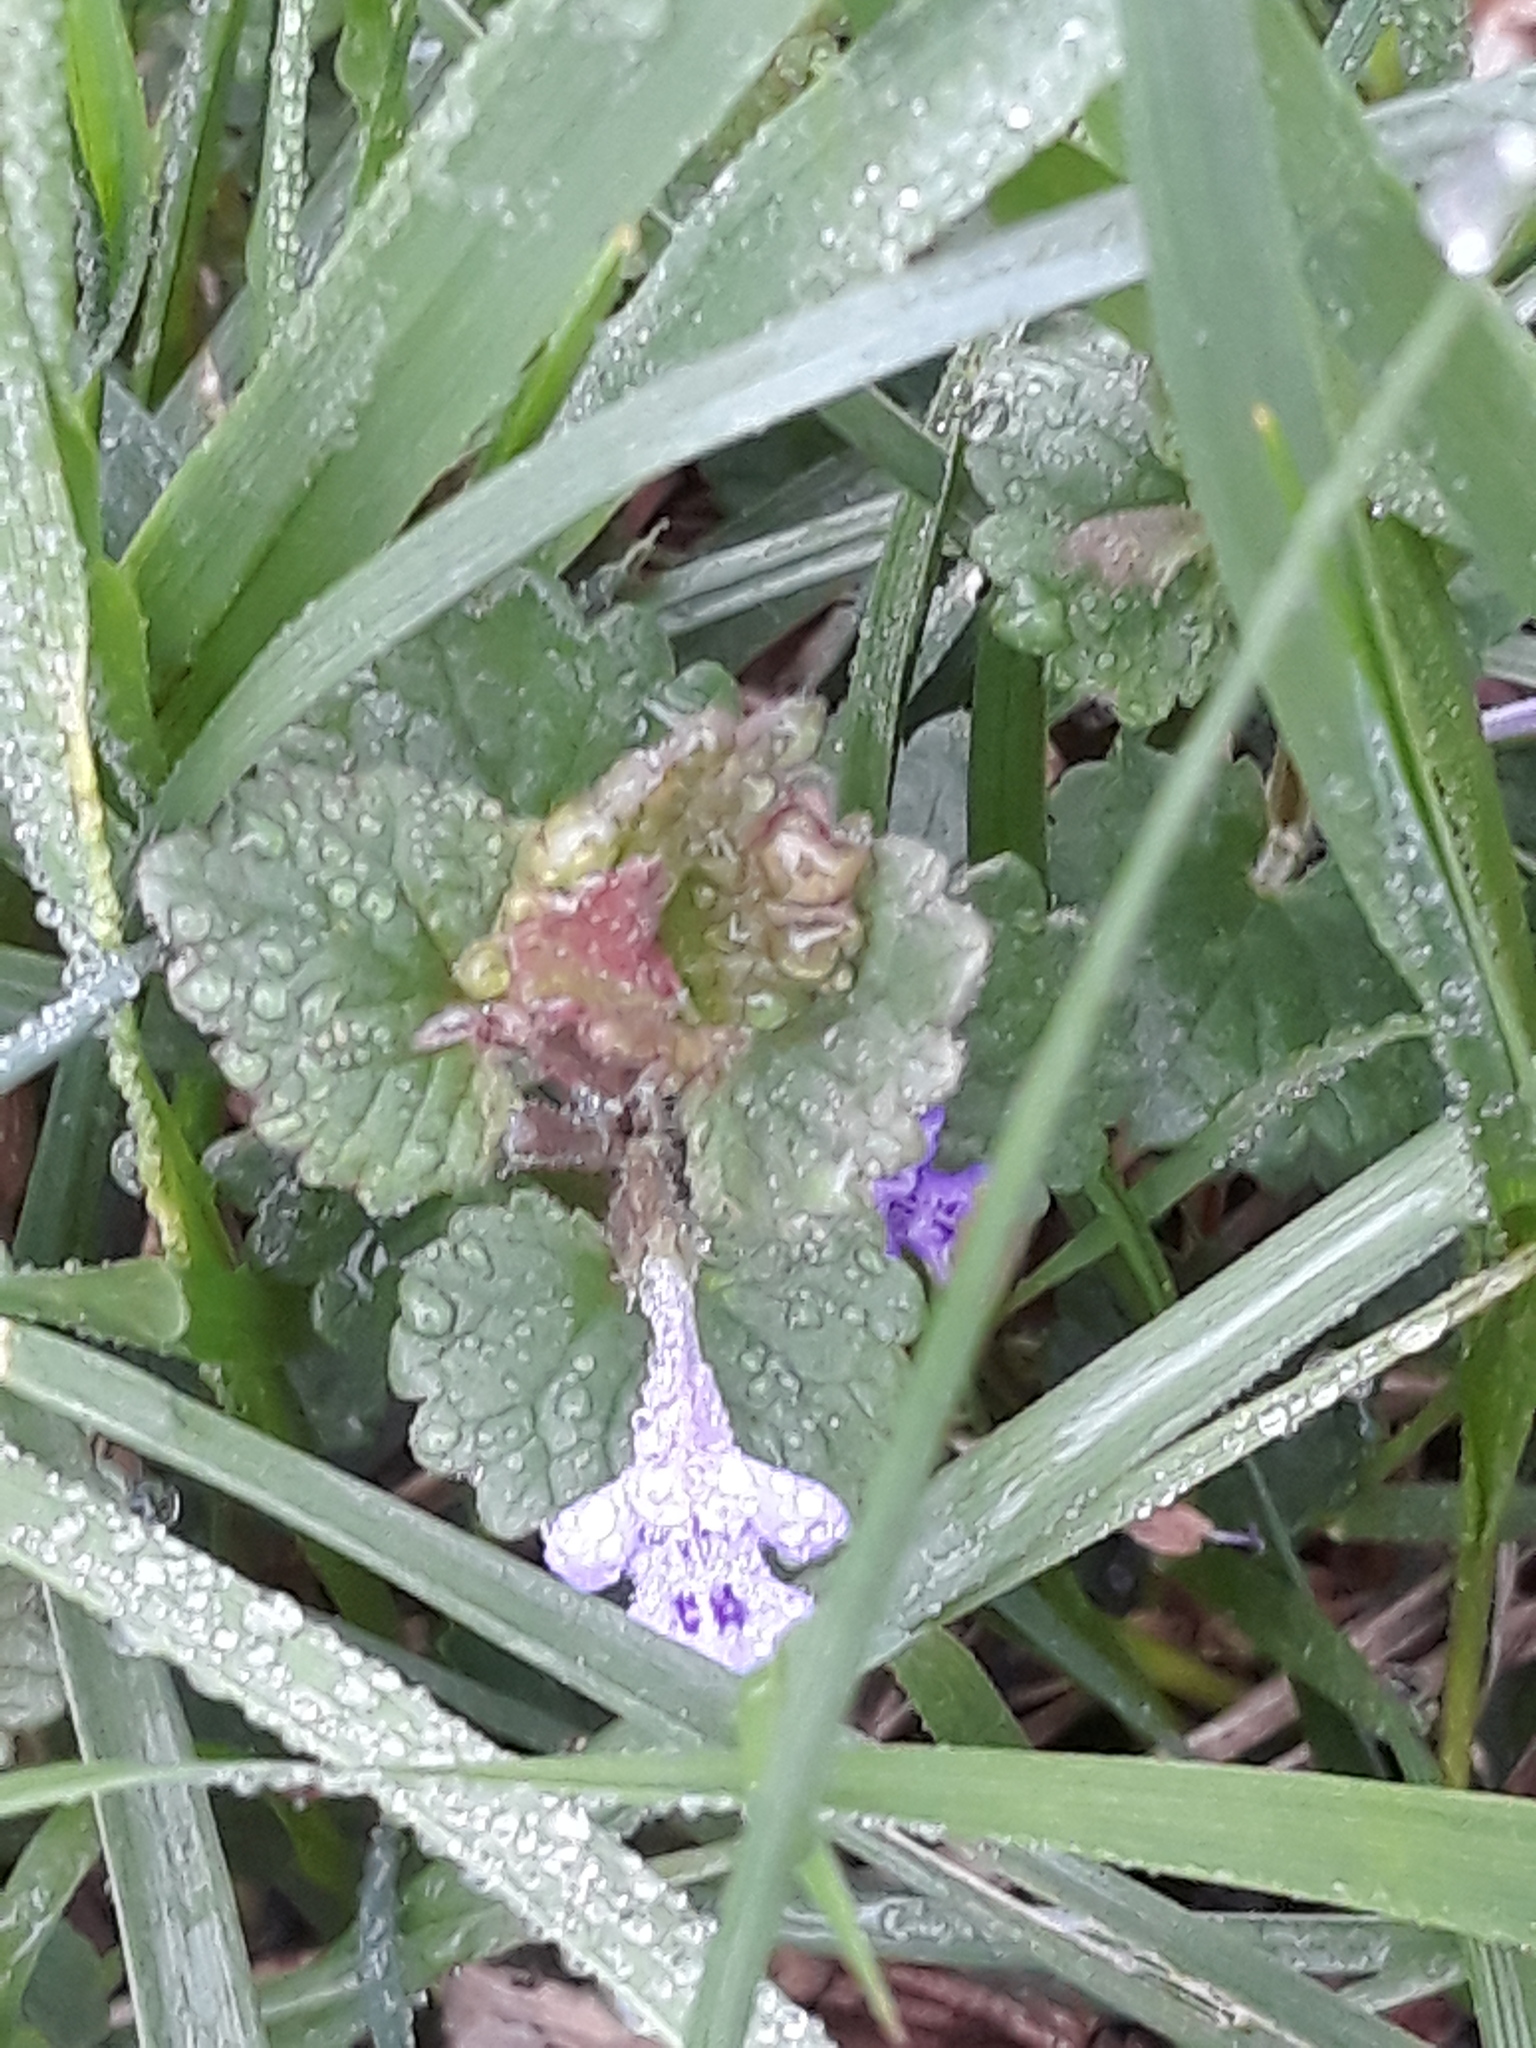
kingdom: Plantae
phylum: Tracheophyta
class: Magnoliopsida
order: Lamiales
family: Lamiaceae
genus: Glechoma
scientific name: Glechoma hederacea
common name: Ground ivy
